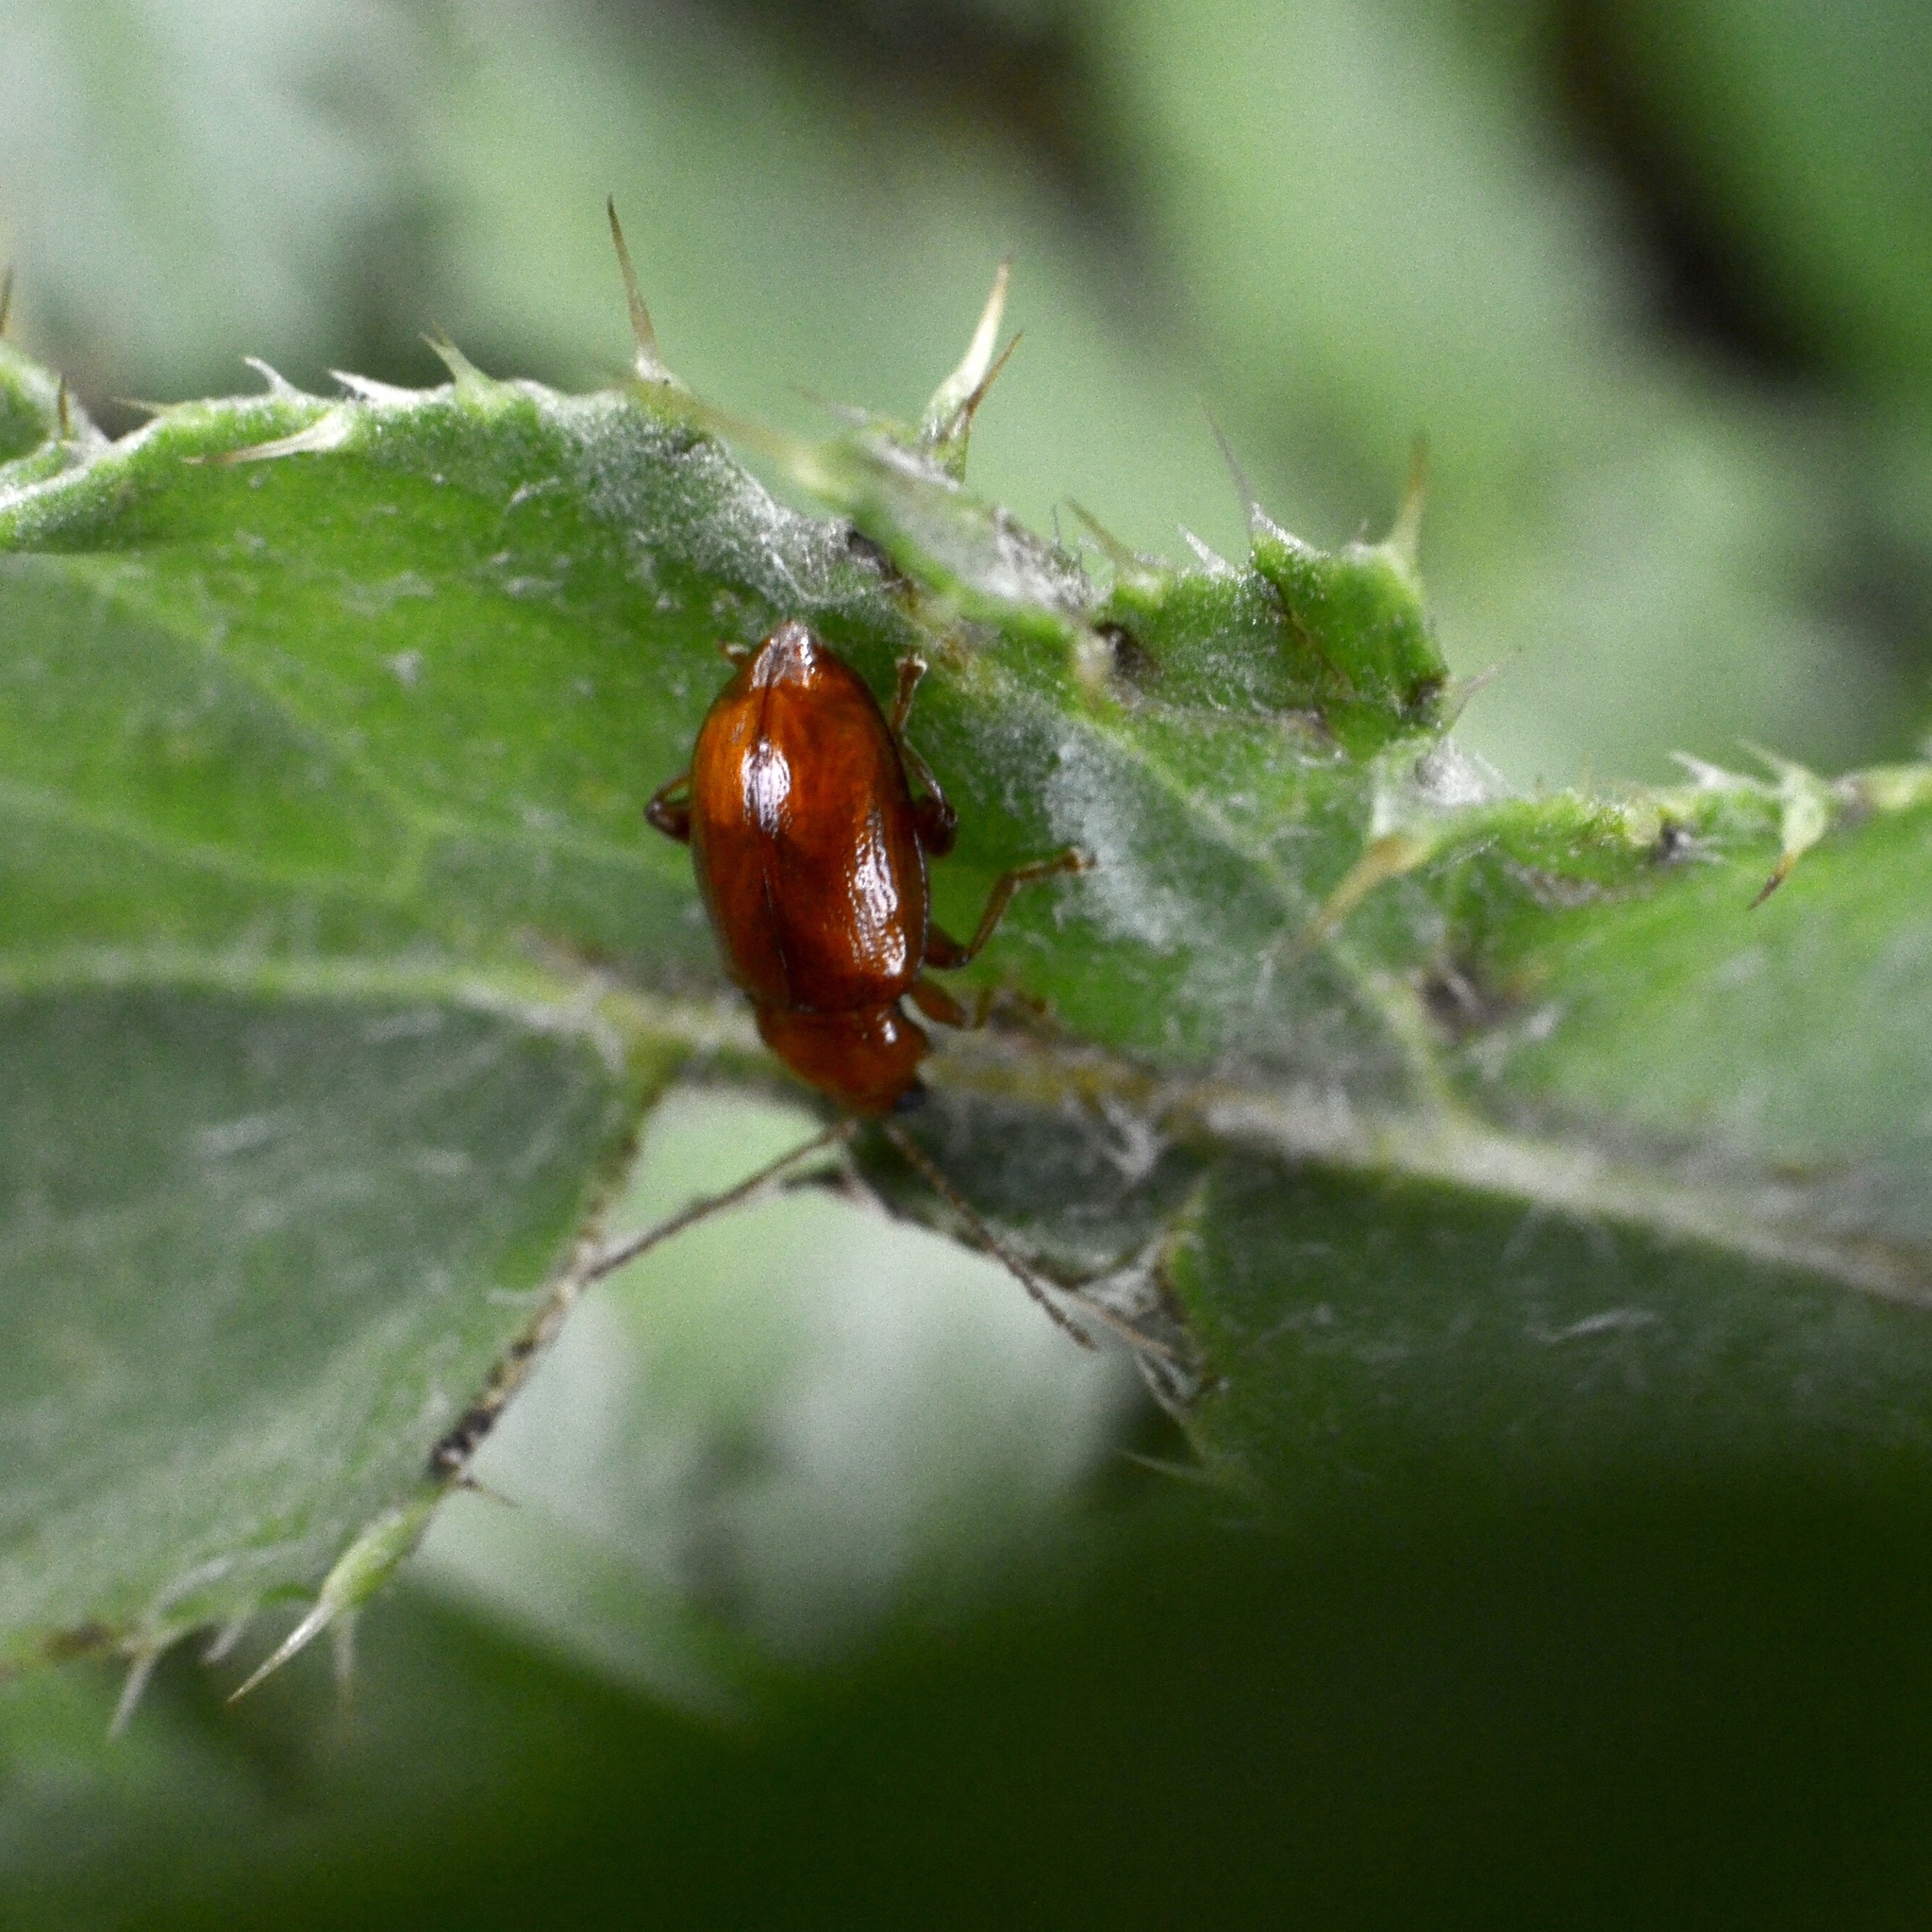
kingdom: Animalia
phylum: Arthropoda
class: Insecta
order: Coleoptera
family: Chrysomelidae
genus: Neocrepidodera
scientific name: Neocrepidodera
